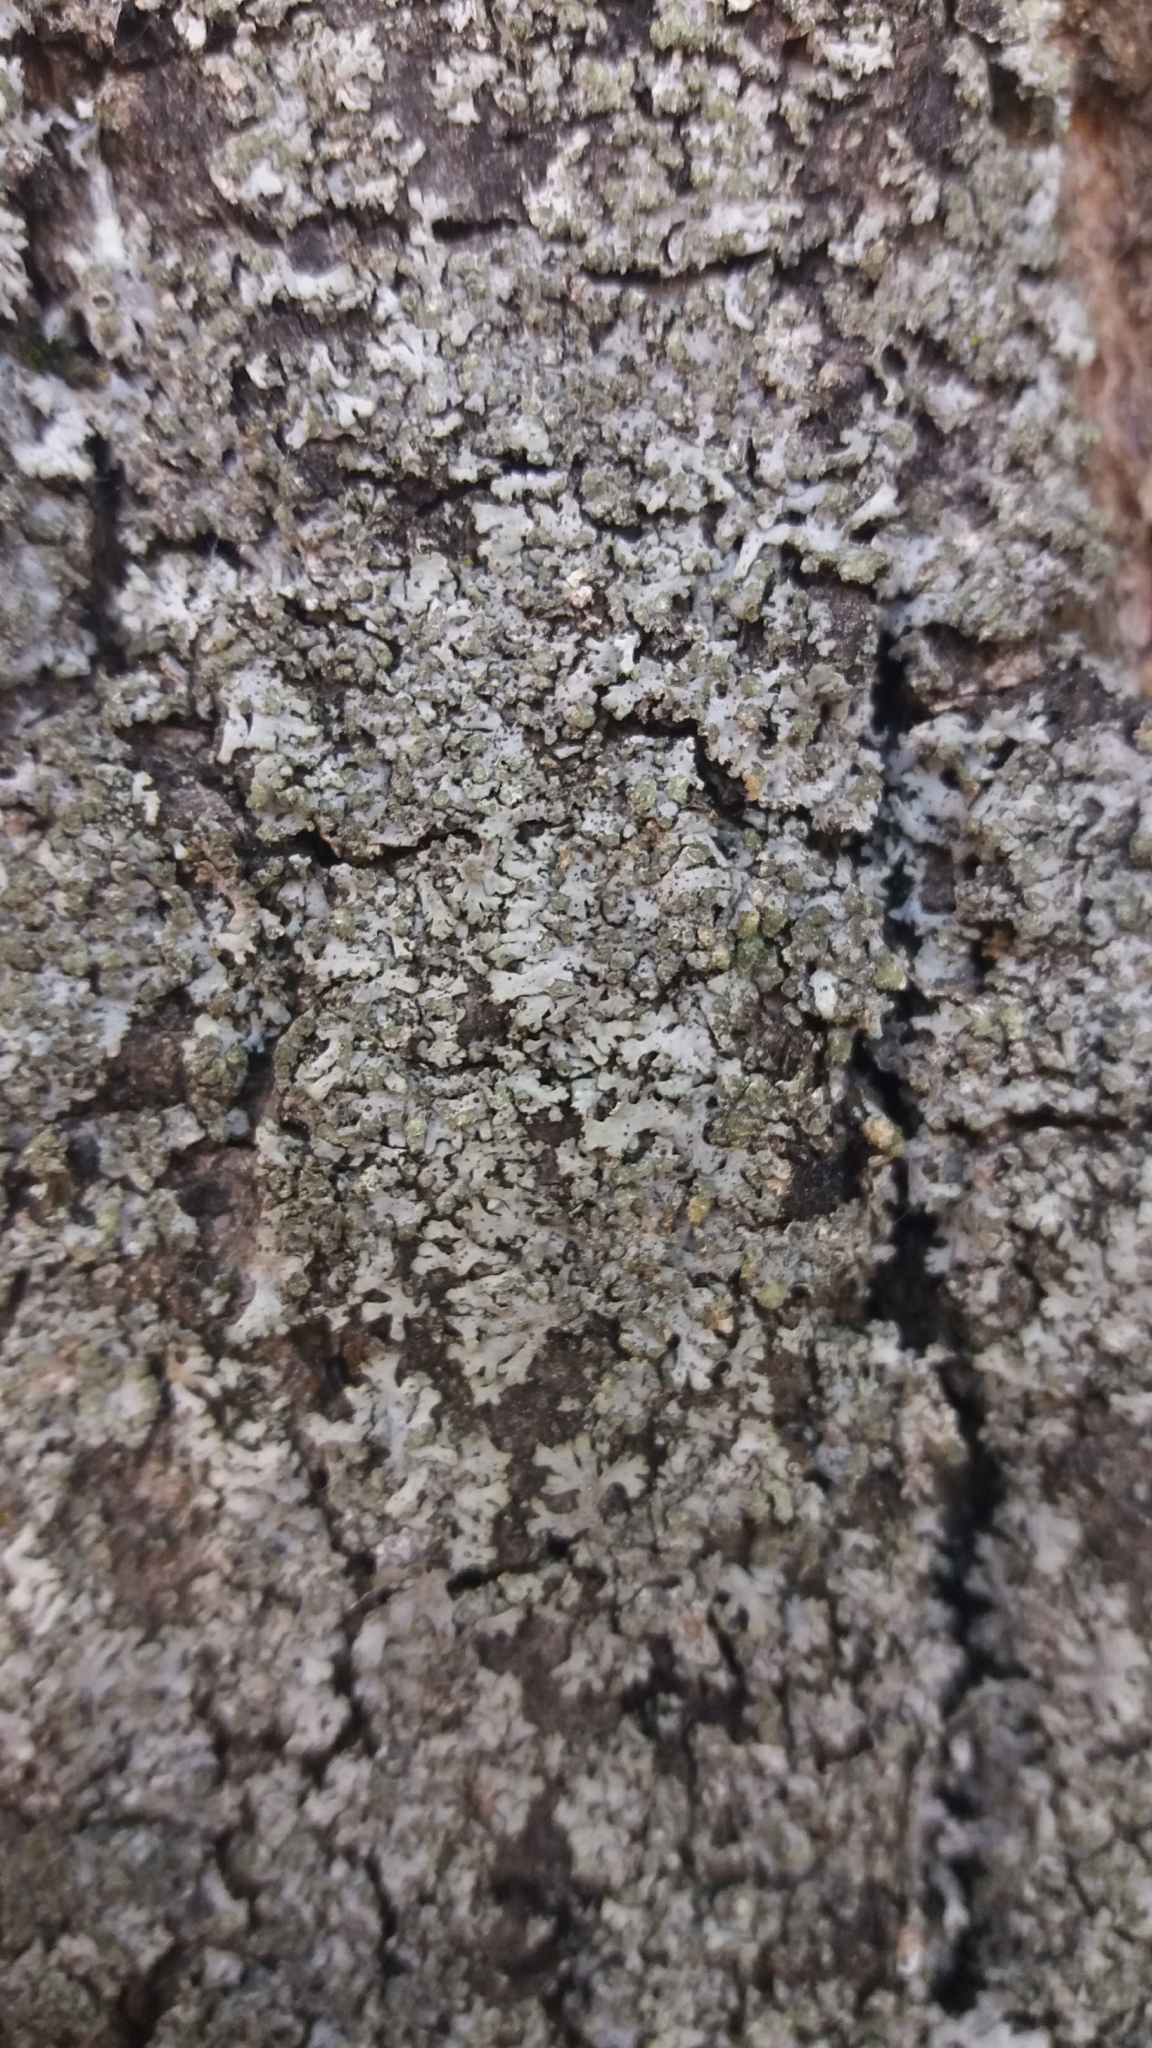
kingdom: Fungi
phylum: Ascomycota
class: Lecanoromycetes
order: Caliciales
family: Physciaceae
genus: Phaeophyscia
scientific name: Phaeophyscia orbicularis
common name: Mealy shadow lichen
